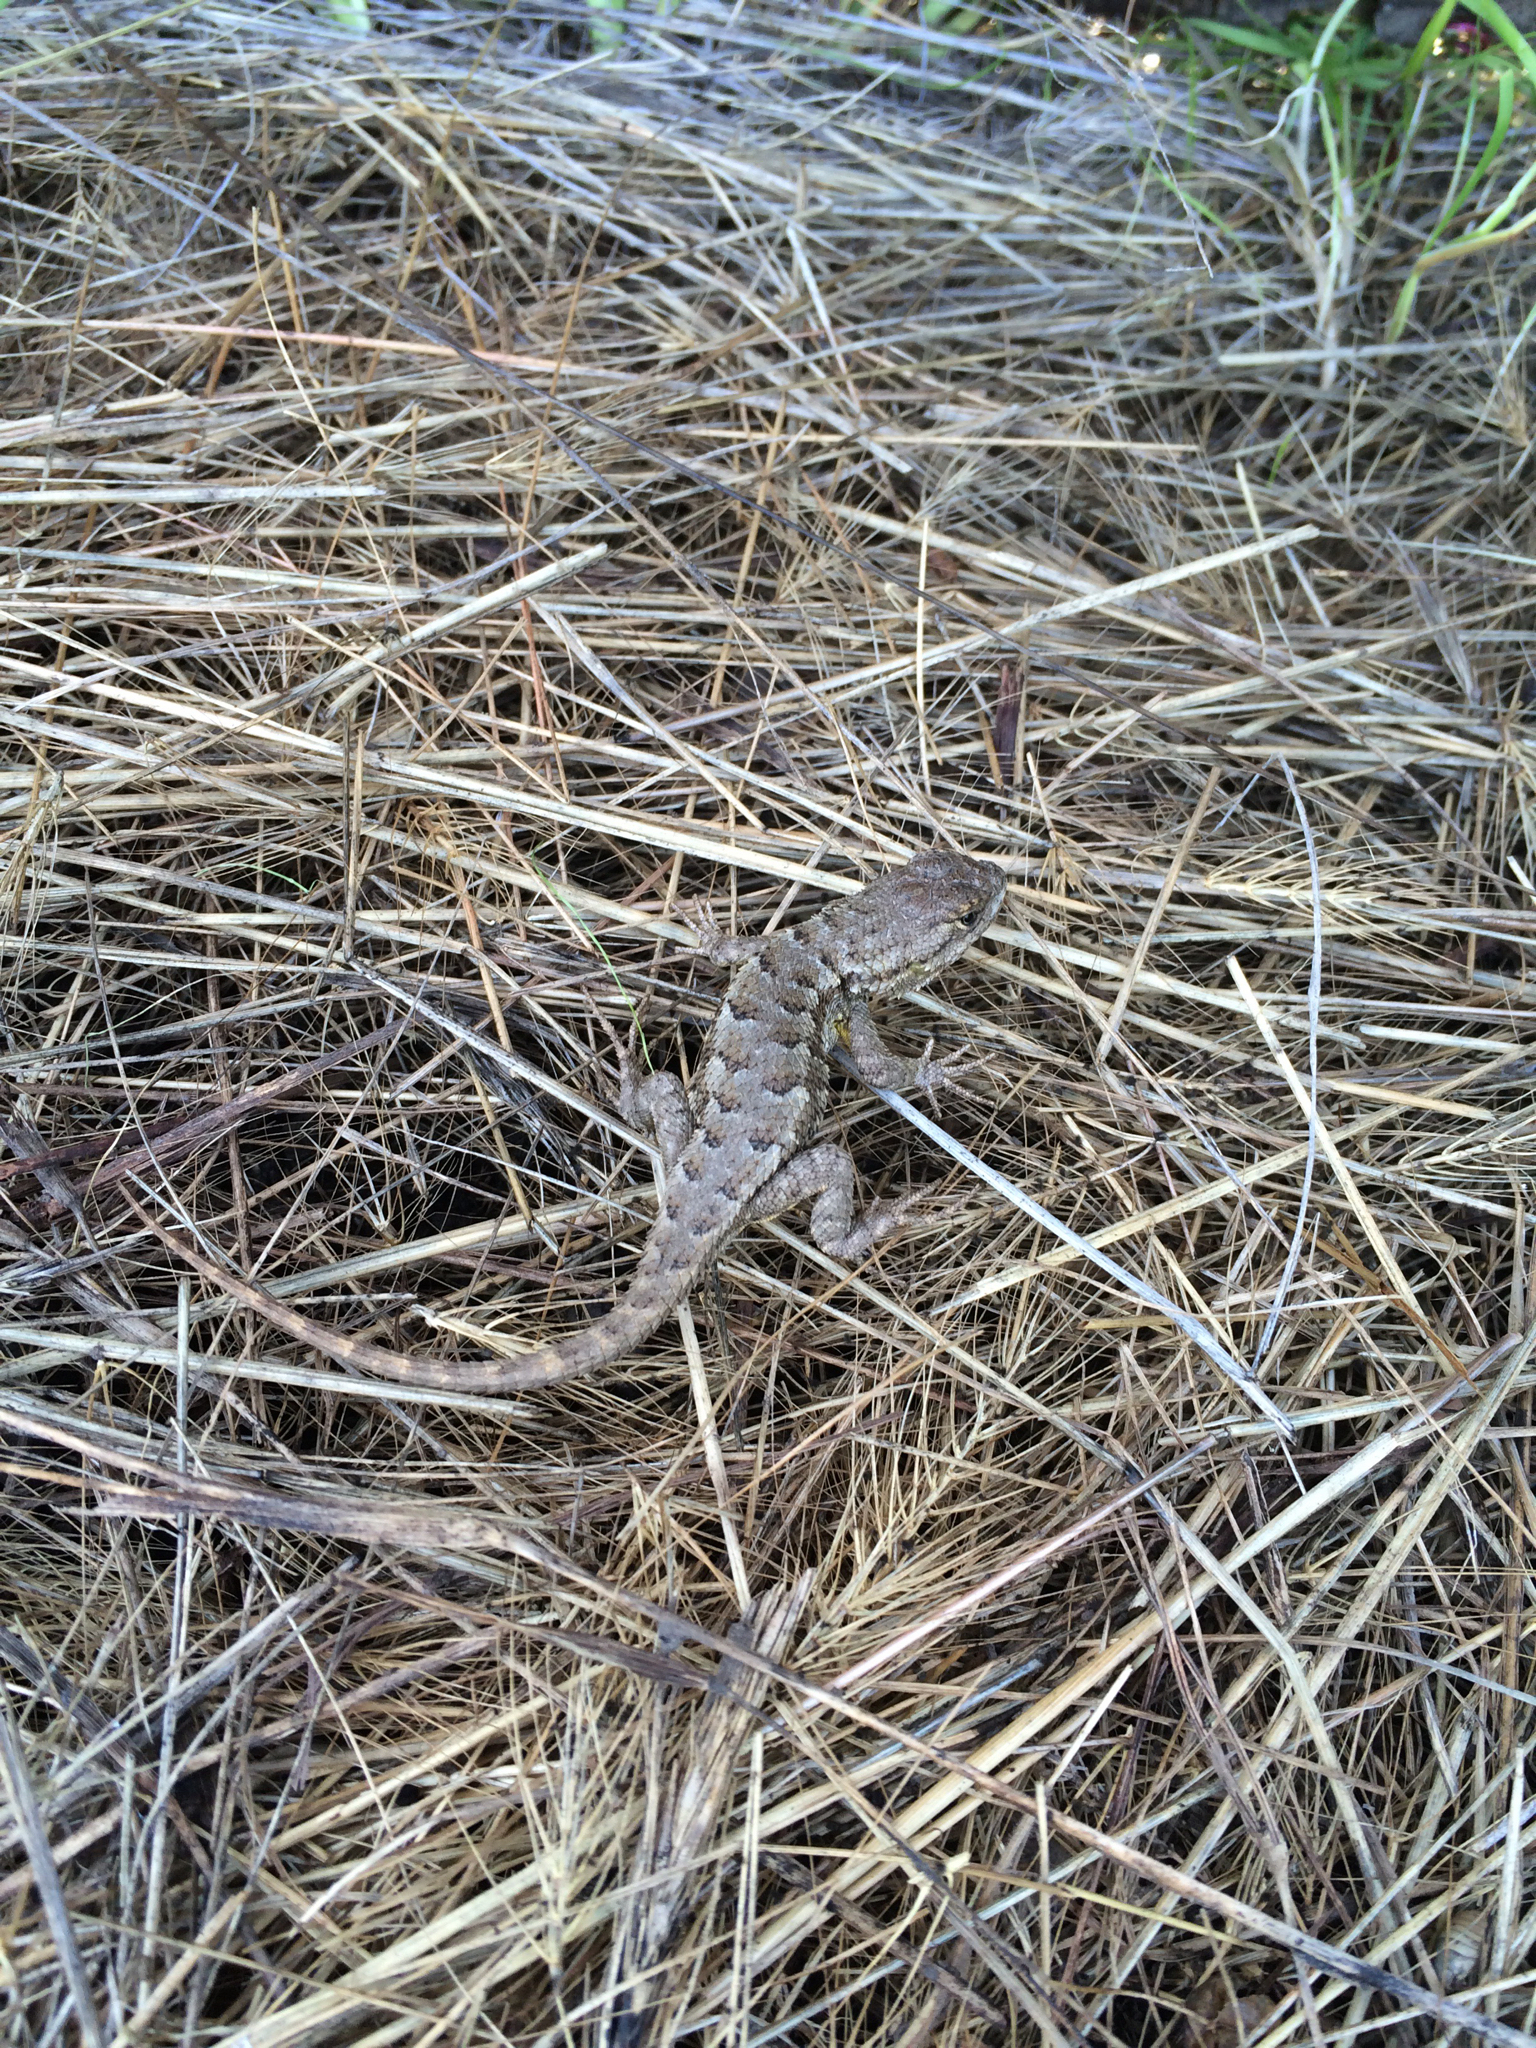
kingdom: Animalia
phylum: Chordata
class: Squamata
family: Phrynosomatidae
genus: Sceloporus
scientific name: Sceloporus occidentalis
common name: Western fence lizard
